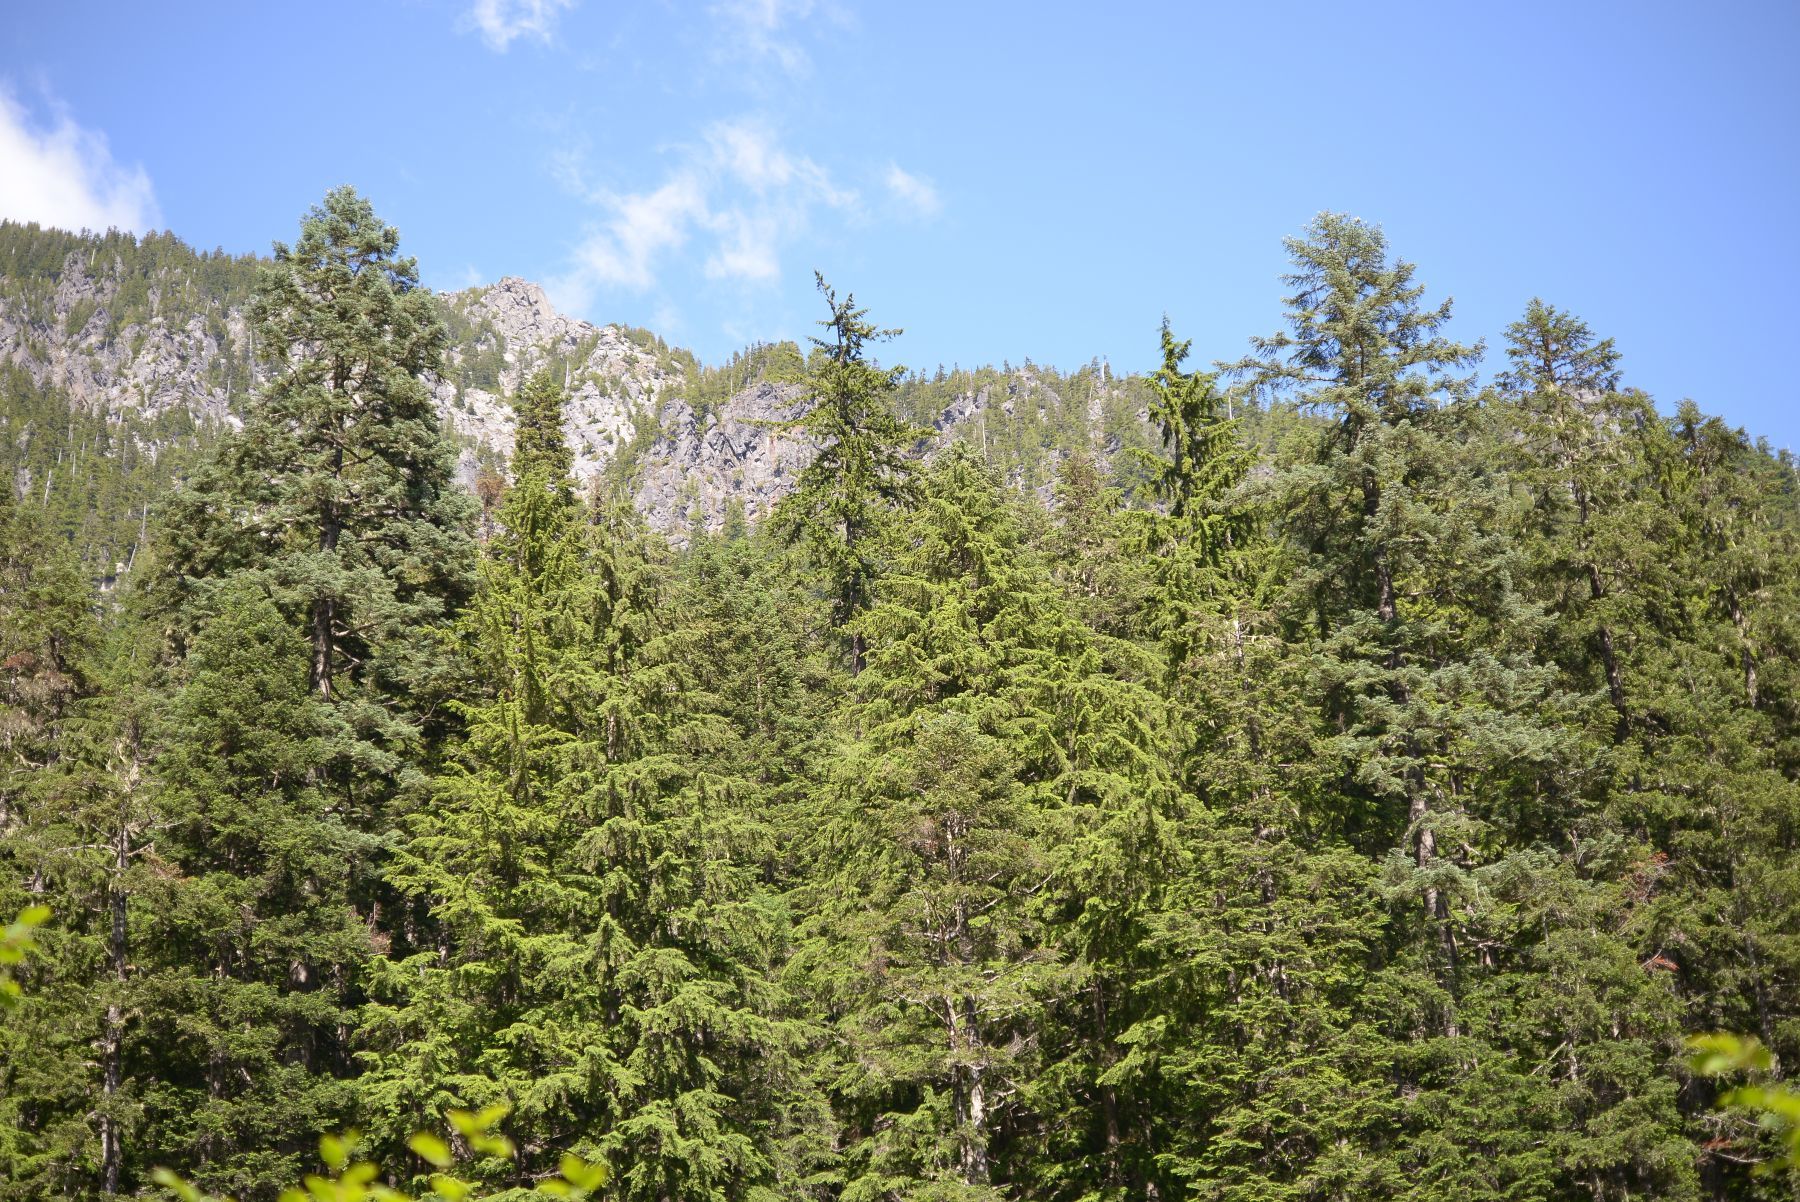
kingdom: Plantae
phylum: Tracheophyta
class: Pinopsida
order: Pinales
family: Pinaceae
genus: Abies
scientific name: Abies procera
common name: Noble fir
